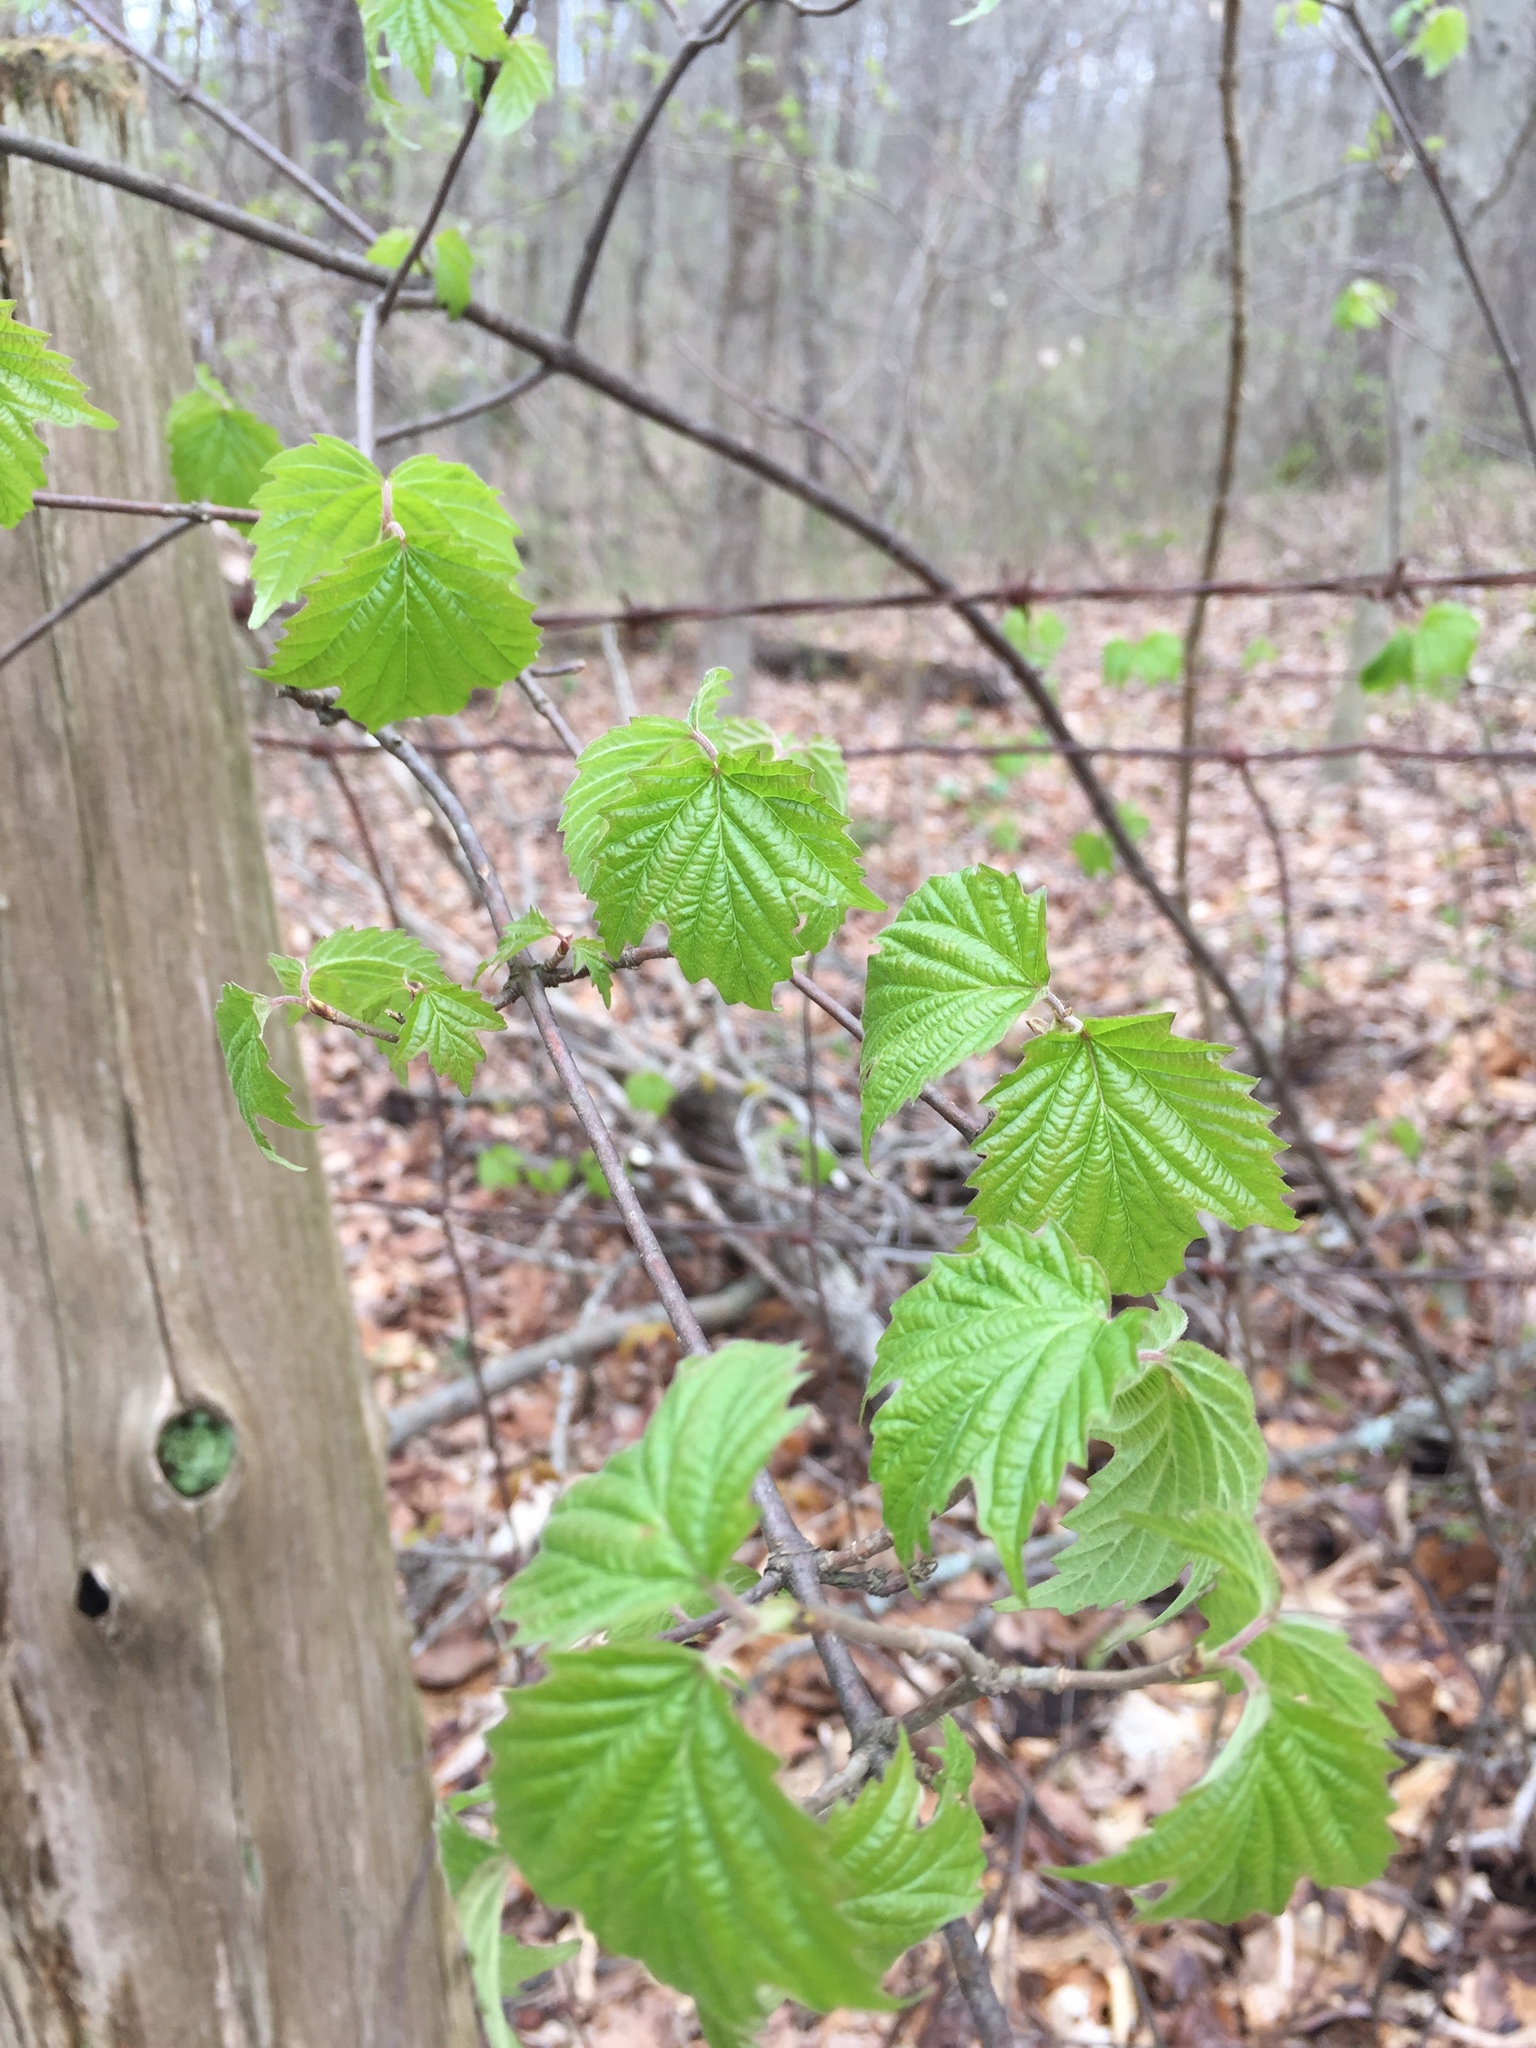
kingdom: Plantae
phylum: Tracheophyta
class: Magnoliopsida
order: Dipsacales
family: Viburnaceae
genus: Viburnum
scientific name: Viburnum acerifolium
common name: Dockmackie
